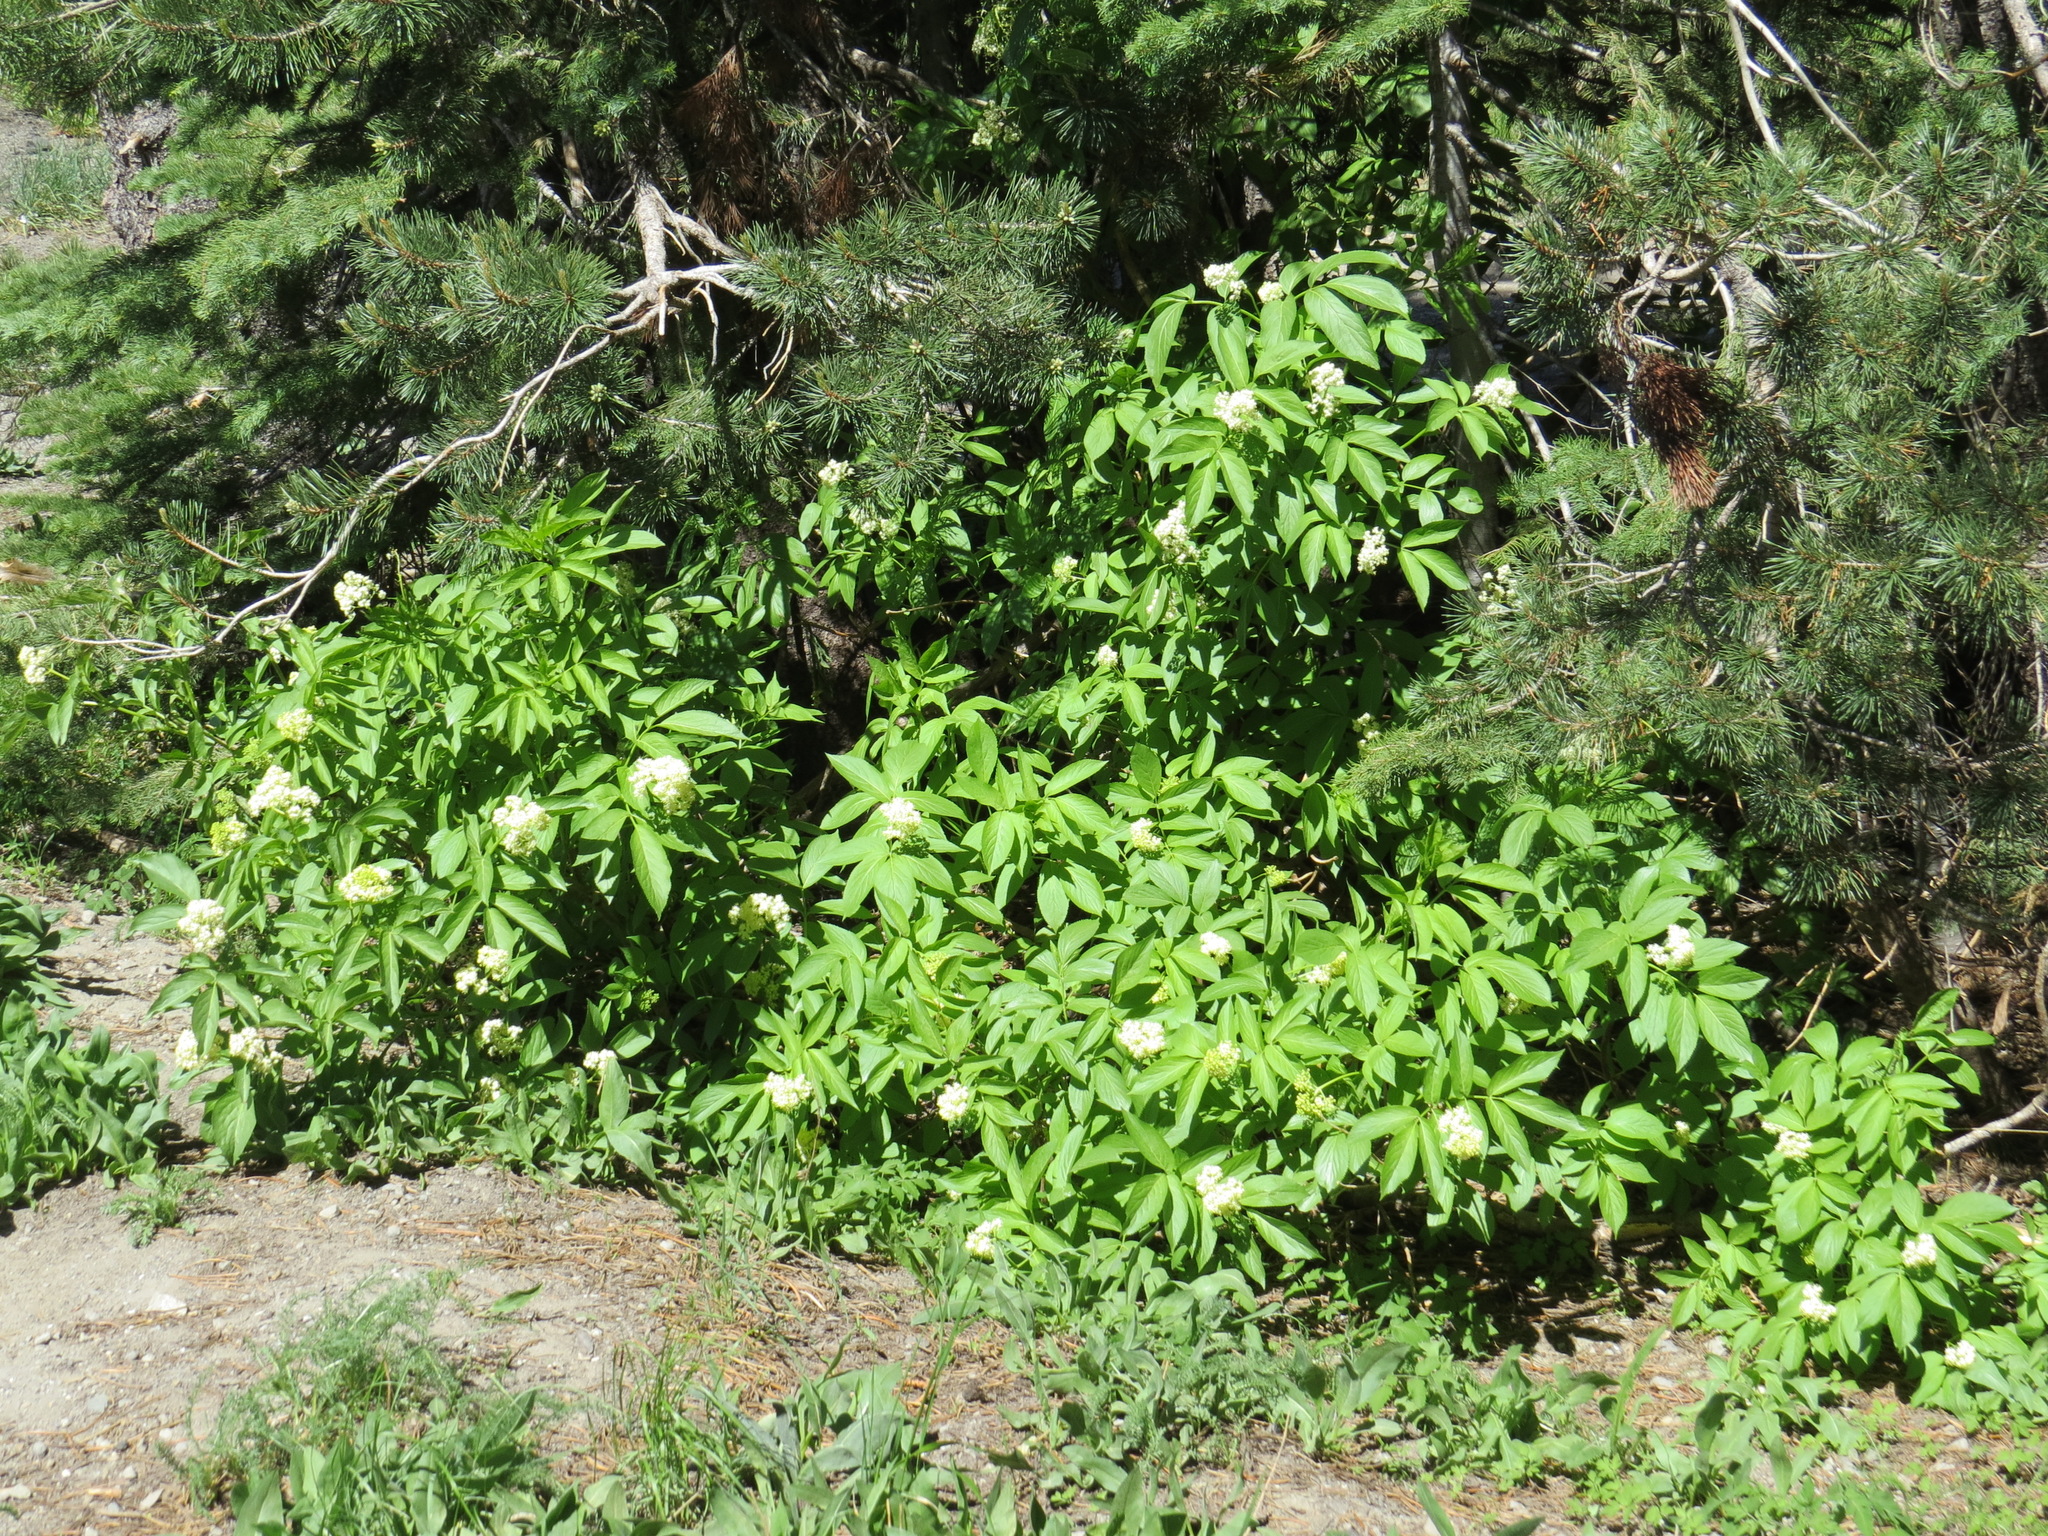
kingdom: Plantae
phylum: Tracheophyta
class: Magnoliopsida
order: Dipsacales
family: Viburnaceae
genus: Sambucus
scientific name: Sambucus racemosa
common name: Red-berried elder
